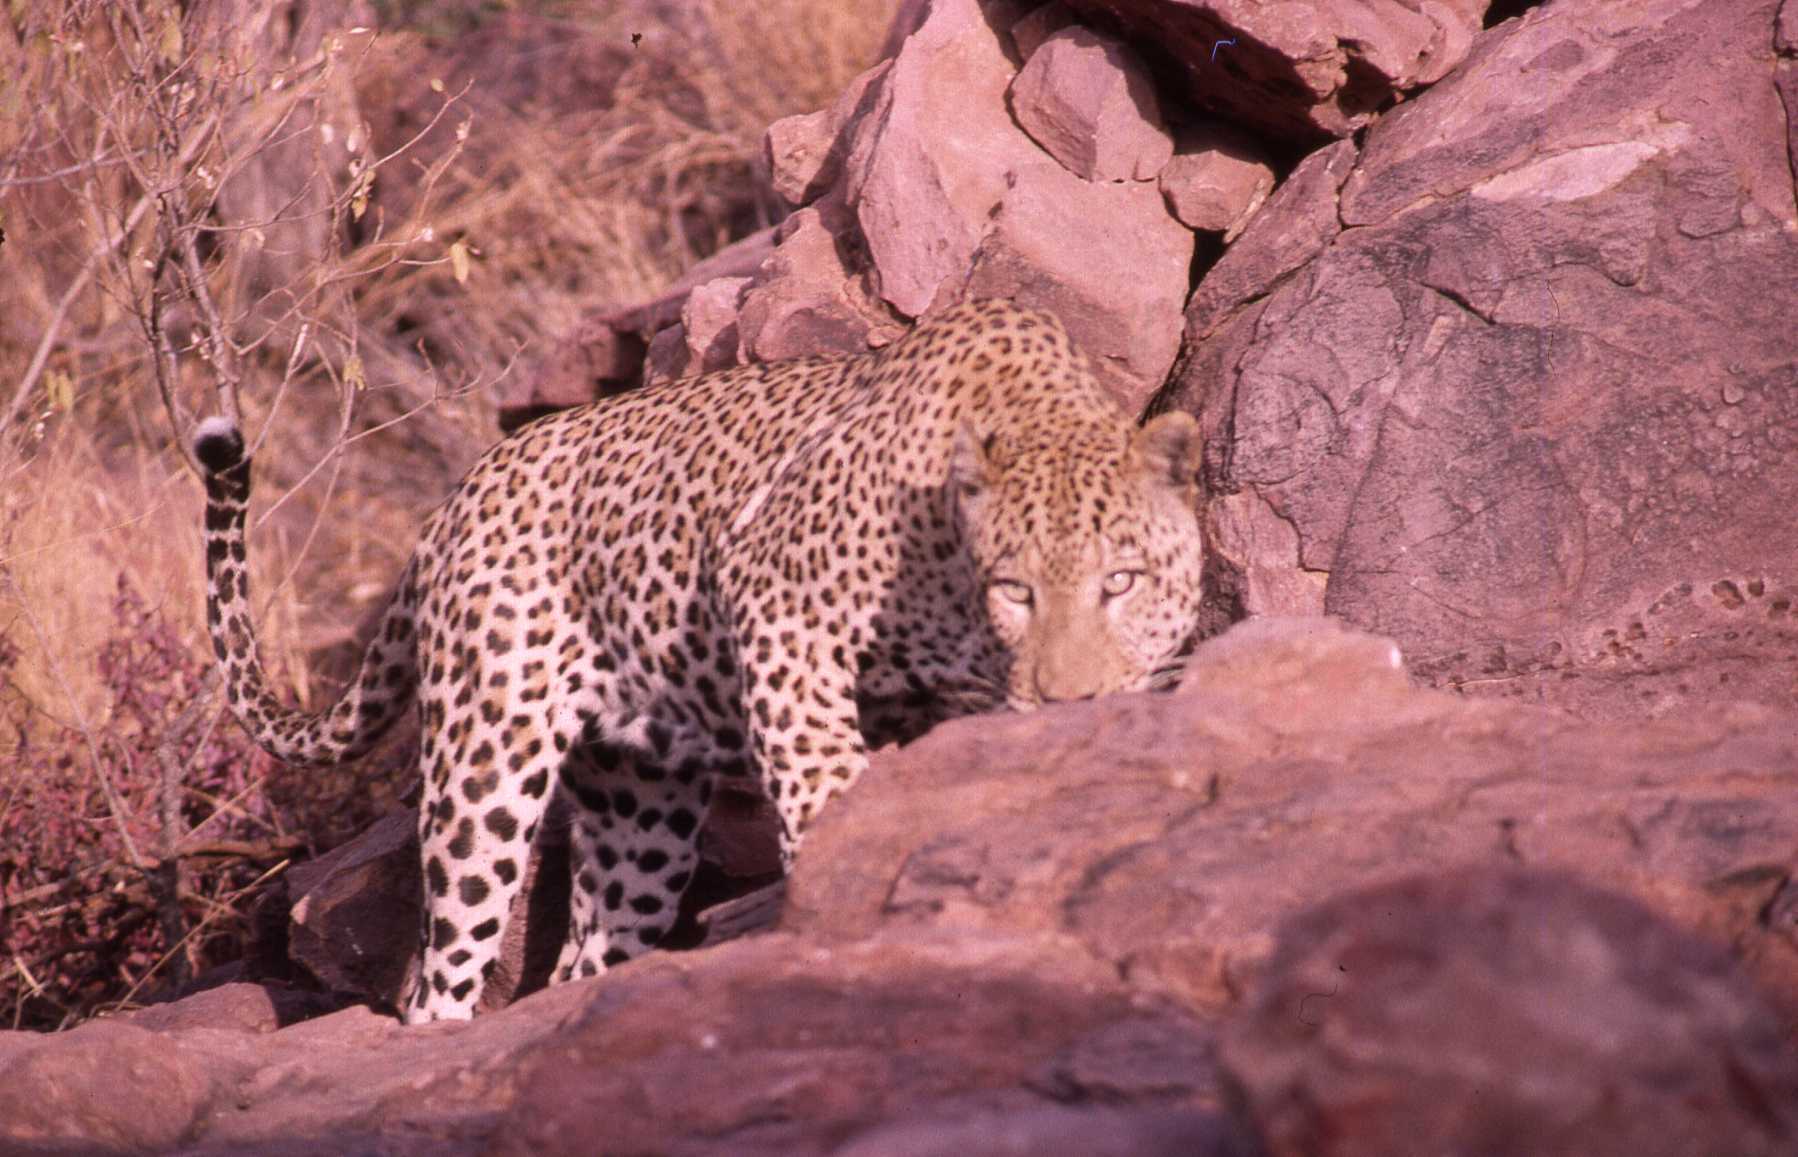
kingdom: Animalia
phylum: Chordata
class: Mammalia
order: Carnivora
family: Felidae
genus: Panthera
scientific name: Panthera pardus
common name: Leopard
